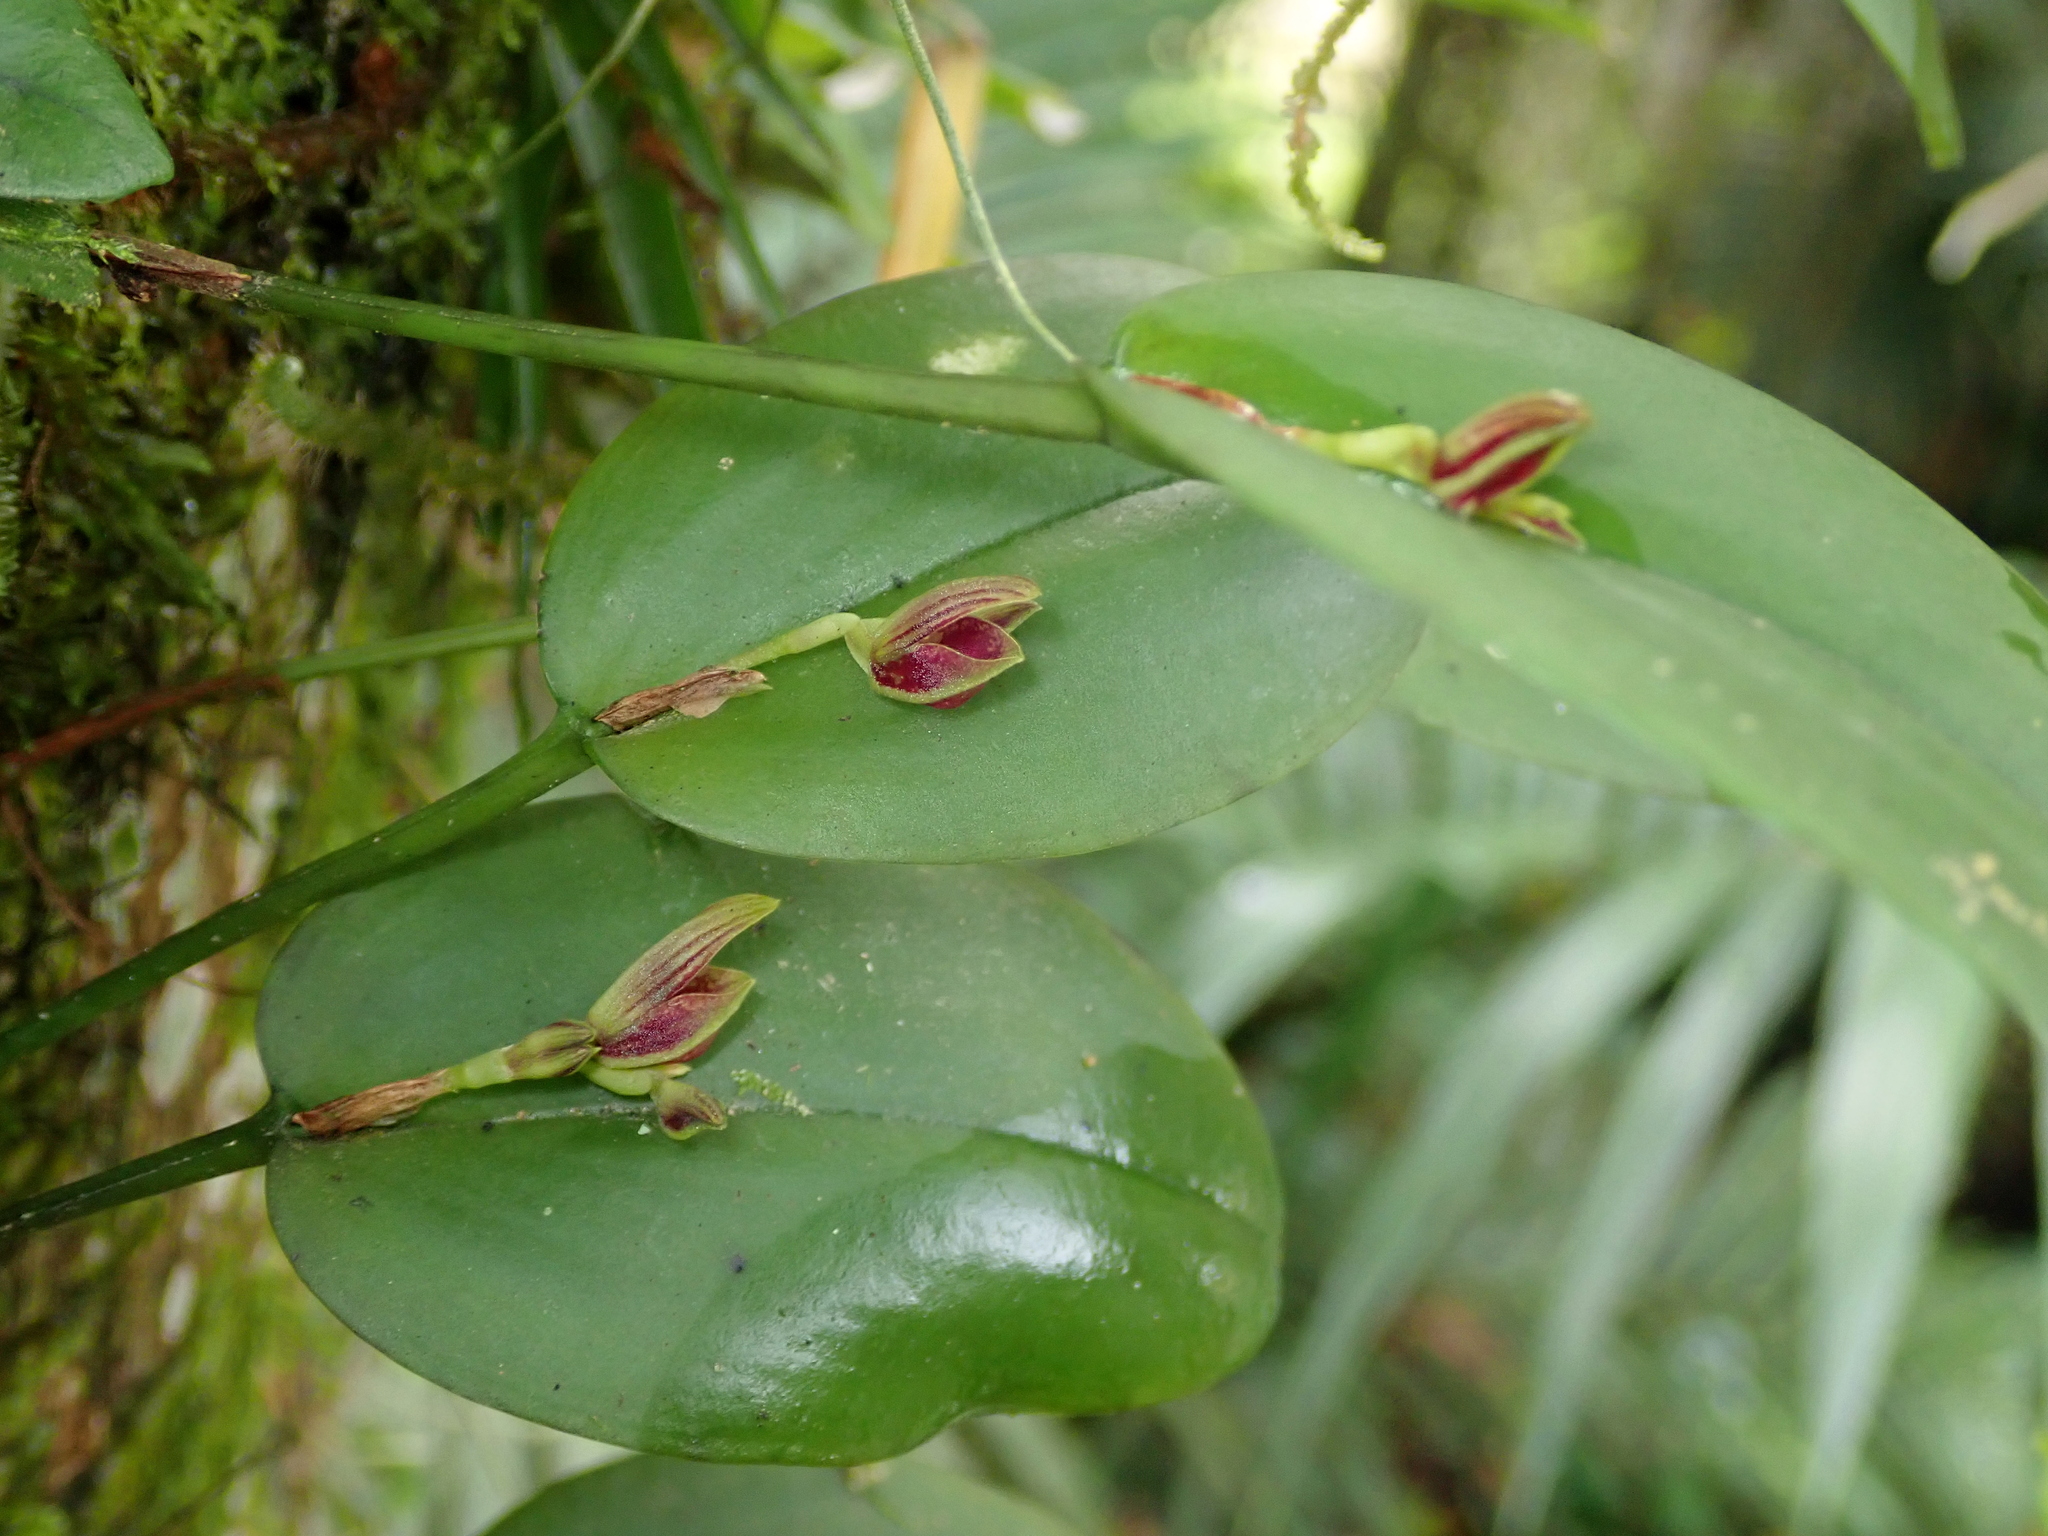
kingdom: Plantae
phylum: Tracheophyta
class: Liliopsida
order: Asparagales
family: Orchidaceae
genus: Acianthera
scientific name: Acianthera glanduligera
